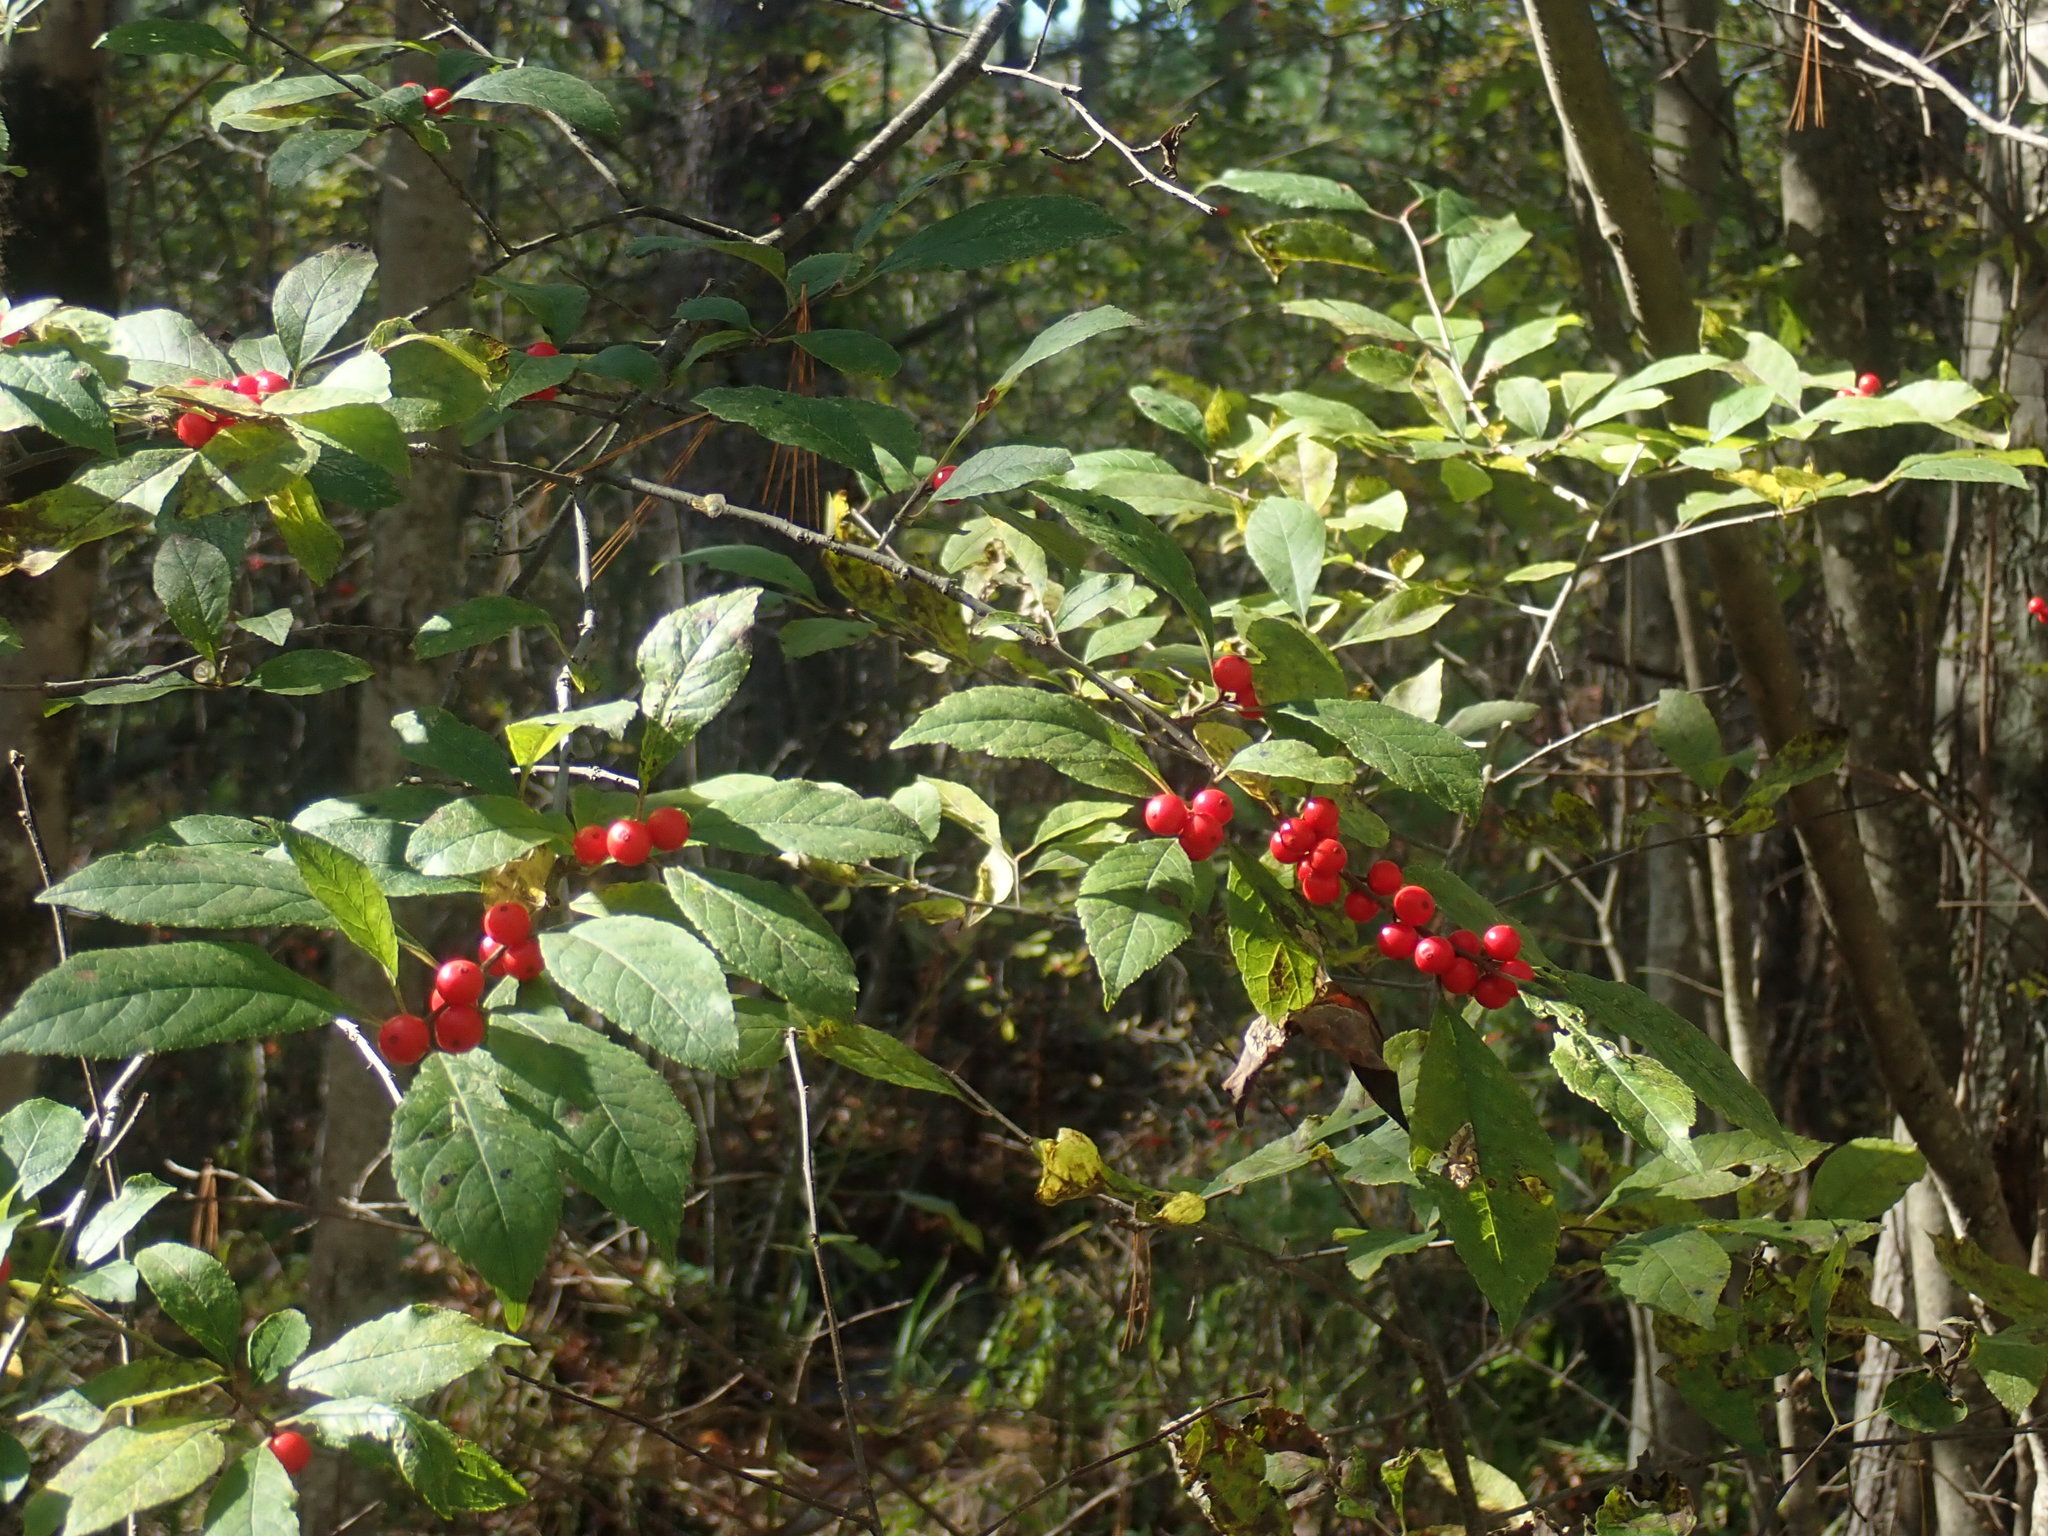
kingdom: Plantae
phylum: Tracheophyta
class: Magnoliopsida
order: Aquifoliales
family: Aquifoliaceae
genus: Ilex
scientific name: Ilex verticillata
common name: Virginia winterberry
